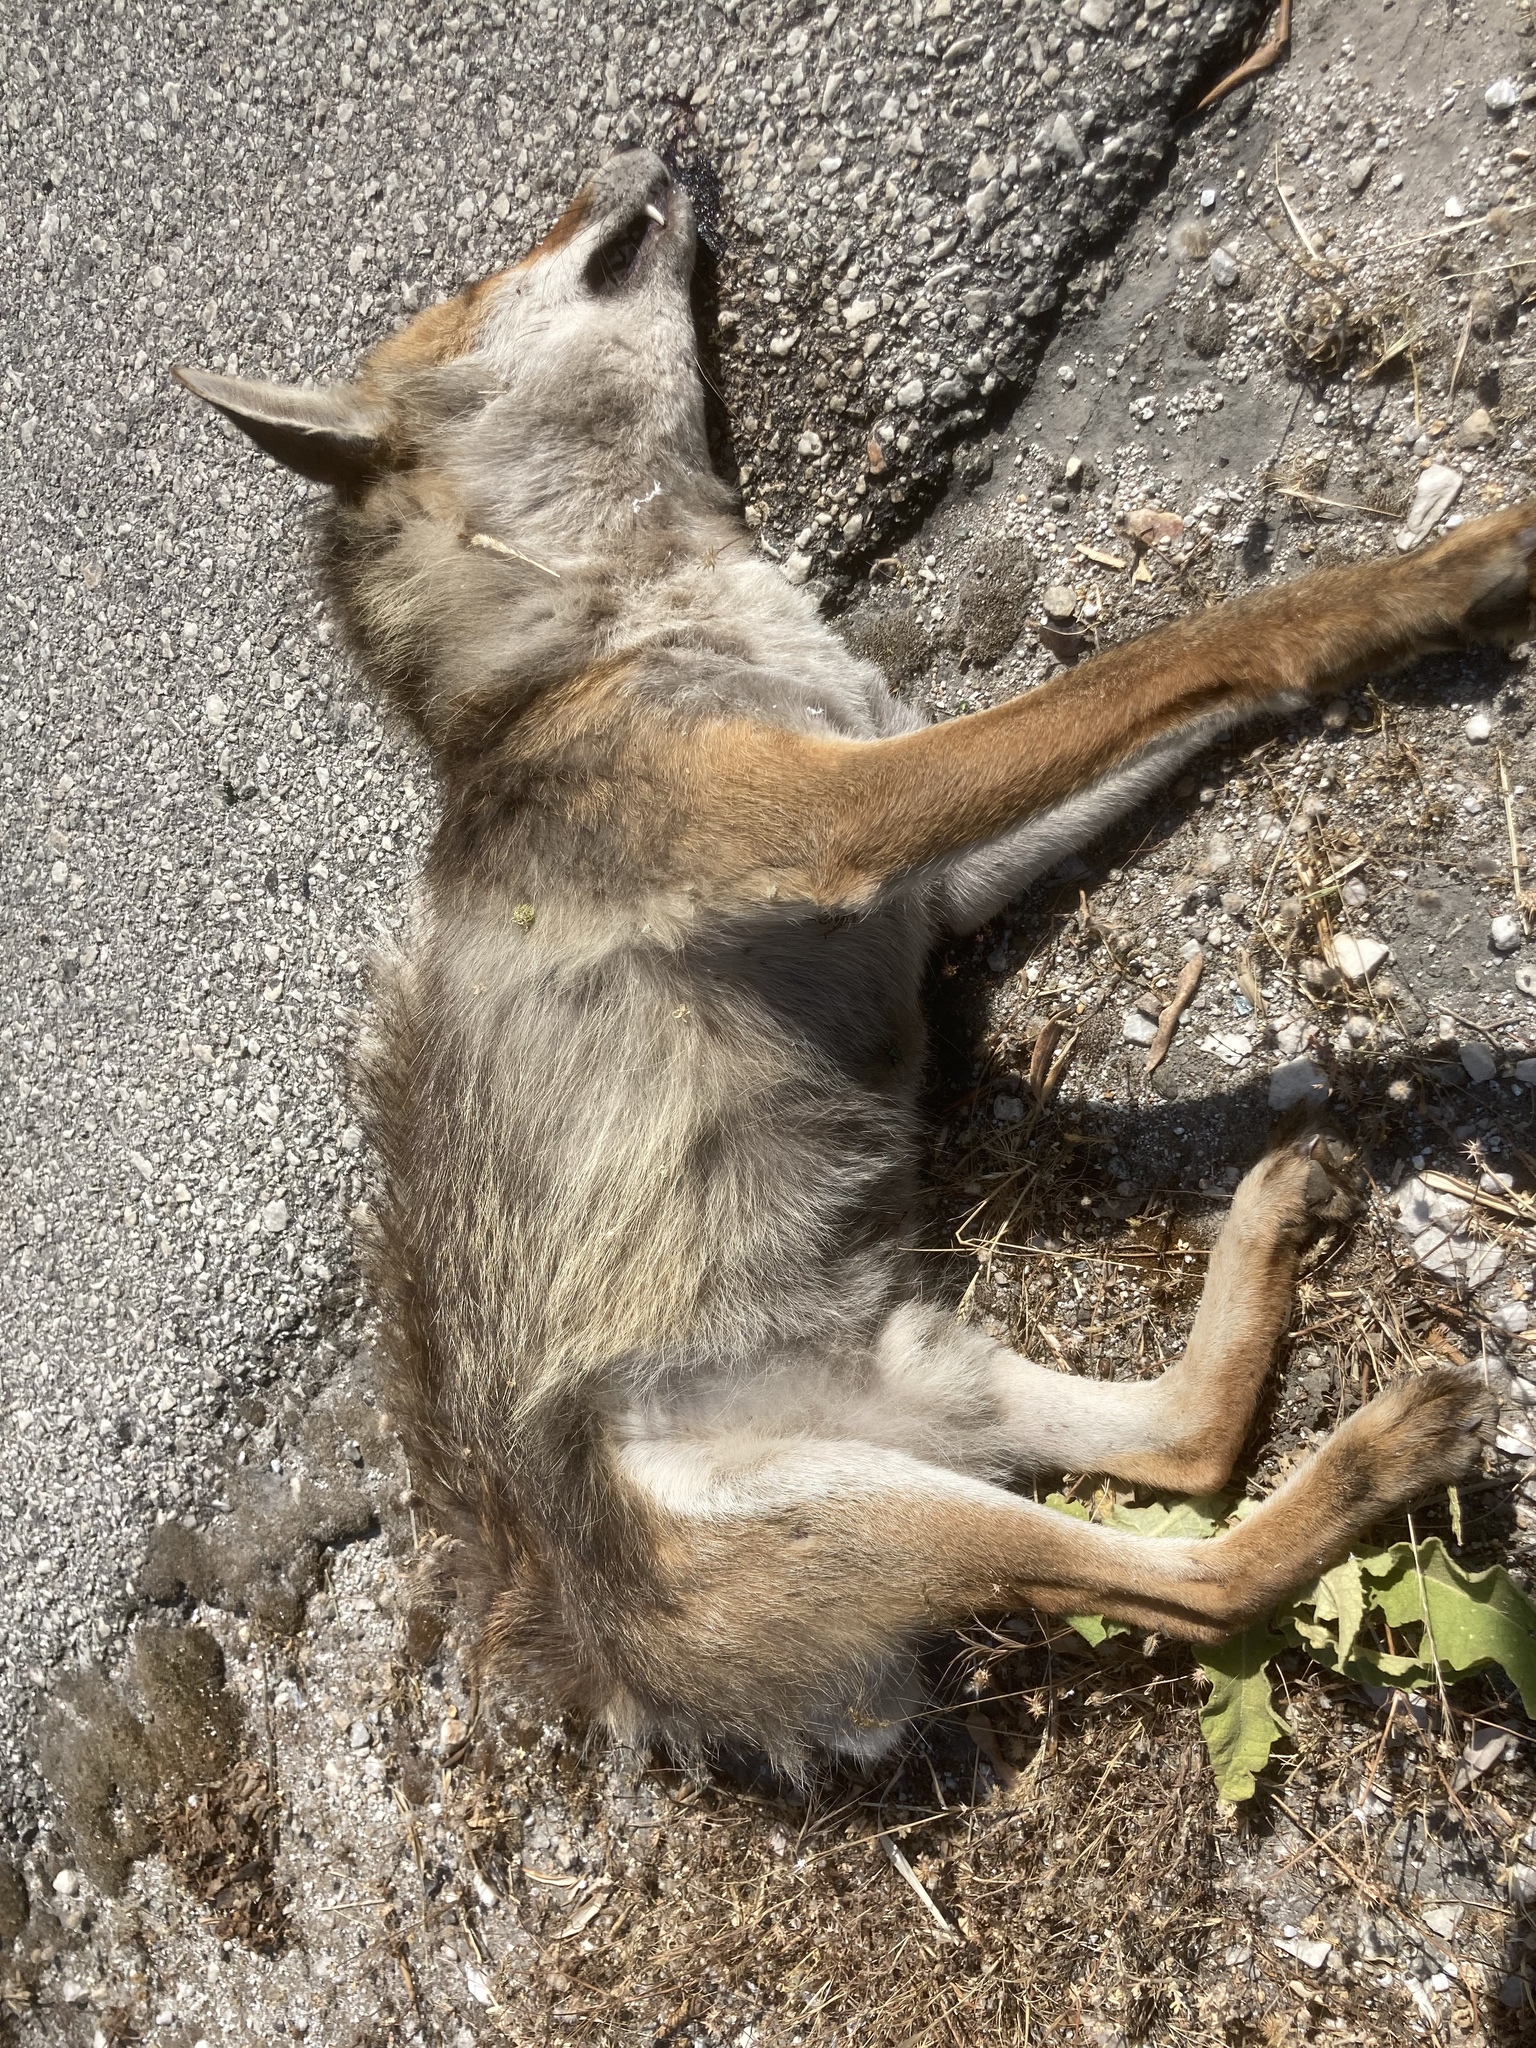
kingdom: Animalia
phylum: Chordata
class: Mammalia
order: Carnivora
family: Canidae
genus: Vulpes
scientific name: Vulpes vulpes
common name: Red fox
